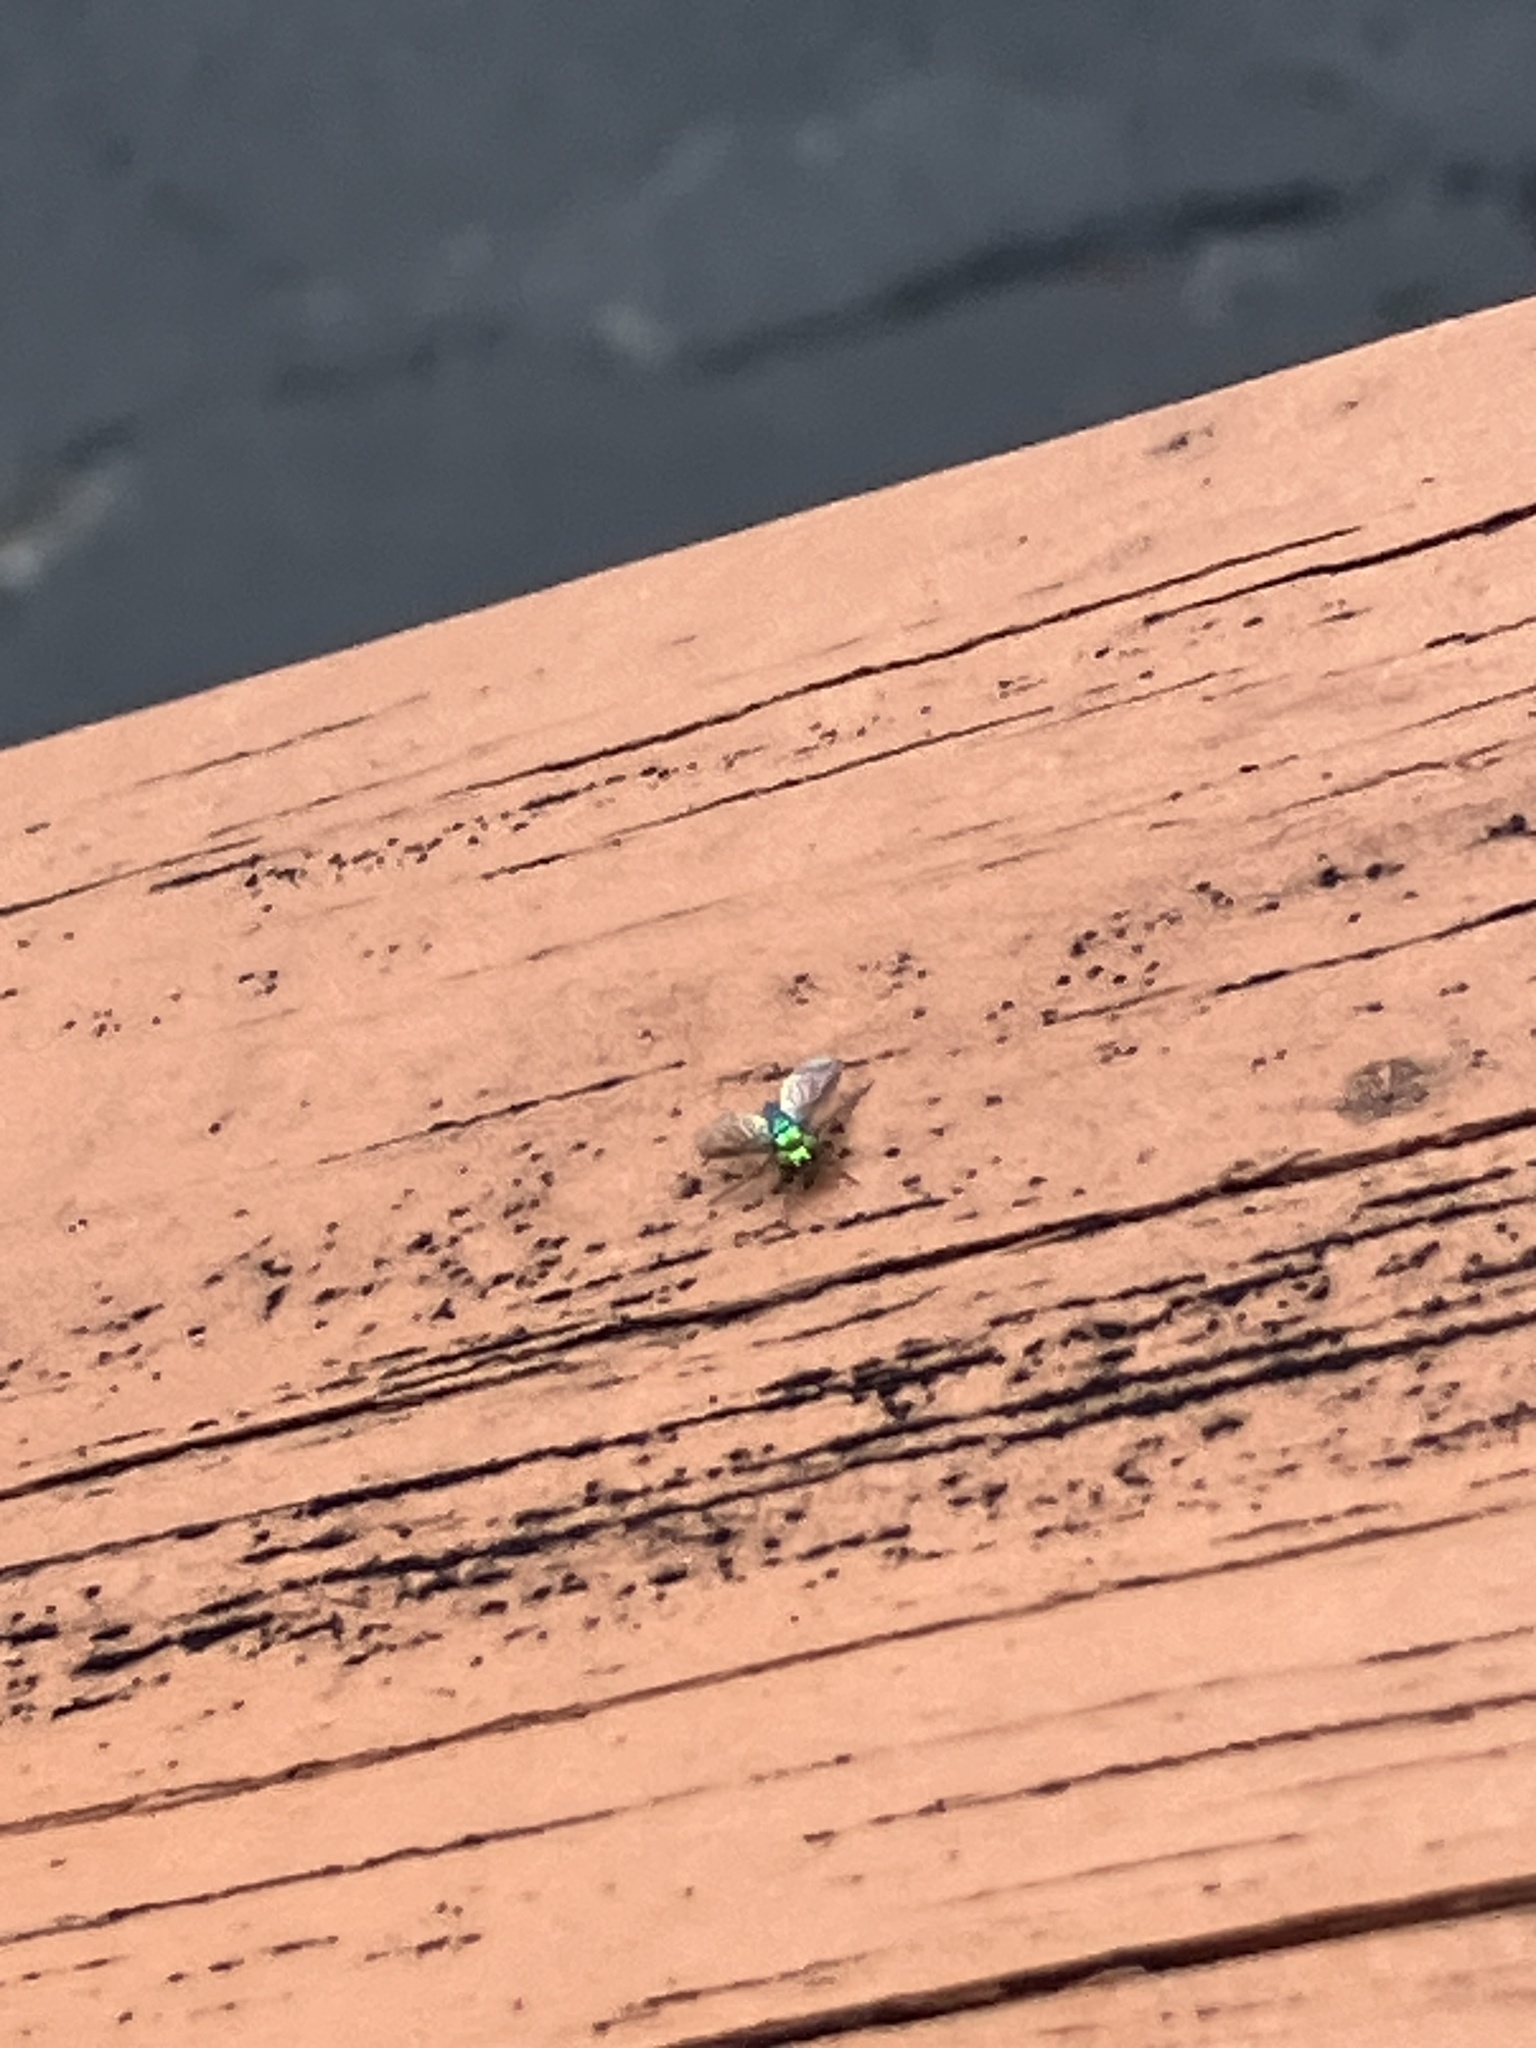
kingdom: Animalia
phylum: Arthropoda
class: Insecta
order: Diptera
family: Dolichopodidae
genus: Condylostylus
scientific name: Condylostylus longicornis
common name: Long-legged fly
